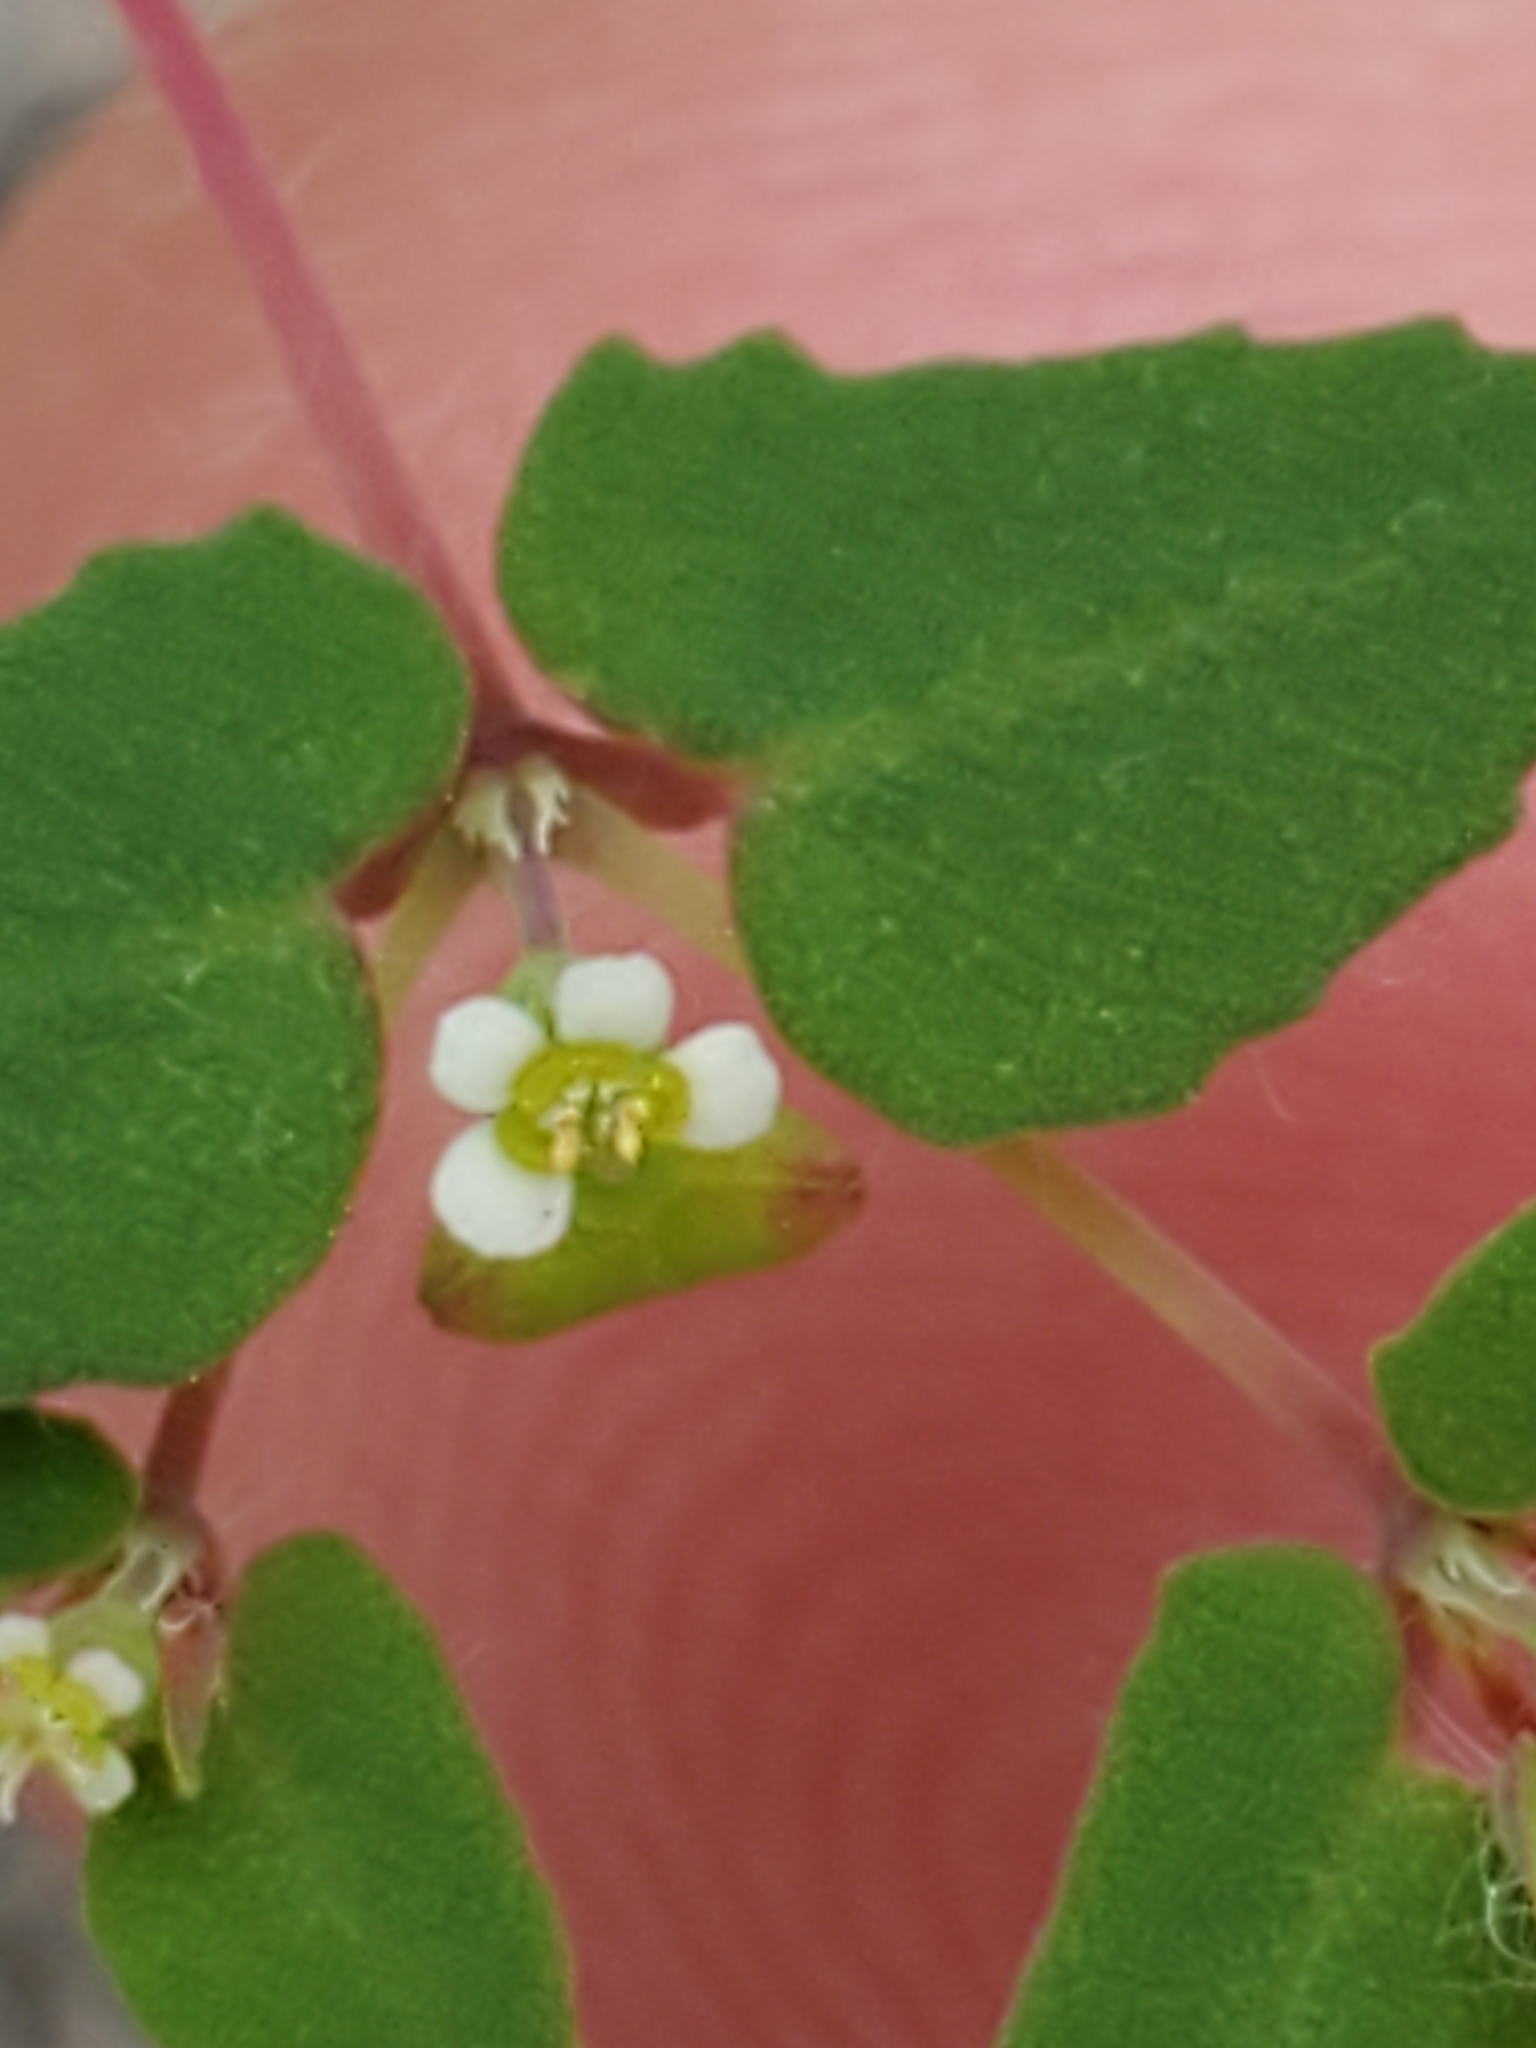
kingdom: Plantae
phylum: Tracheophyta
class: Magnoliopsida
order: Malpighiales
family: Euphorbiaceae
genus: Euphorbia
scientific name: Euphorbia villifera
